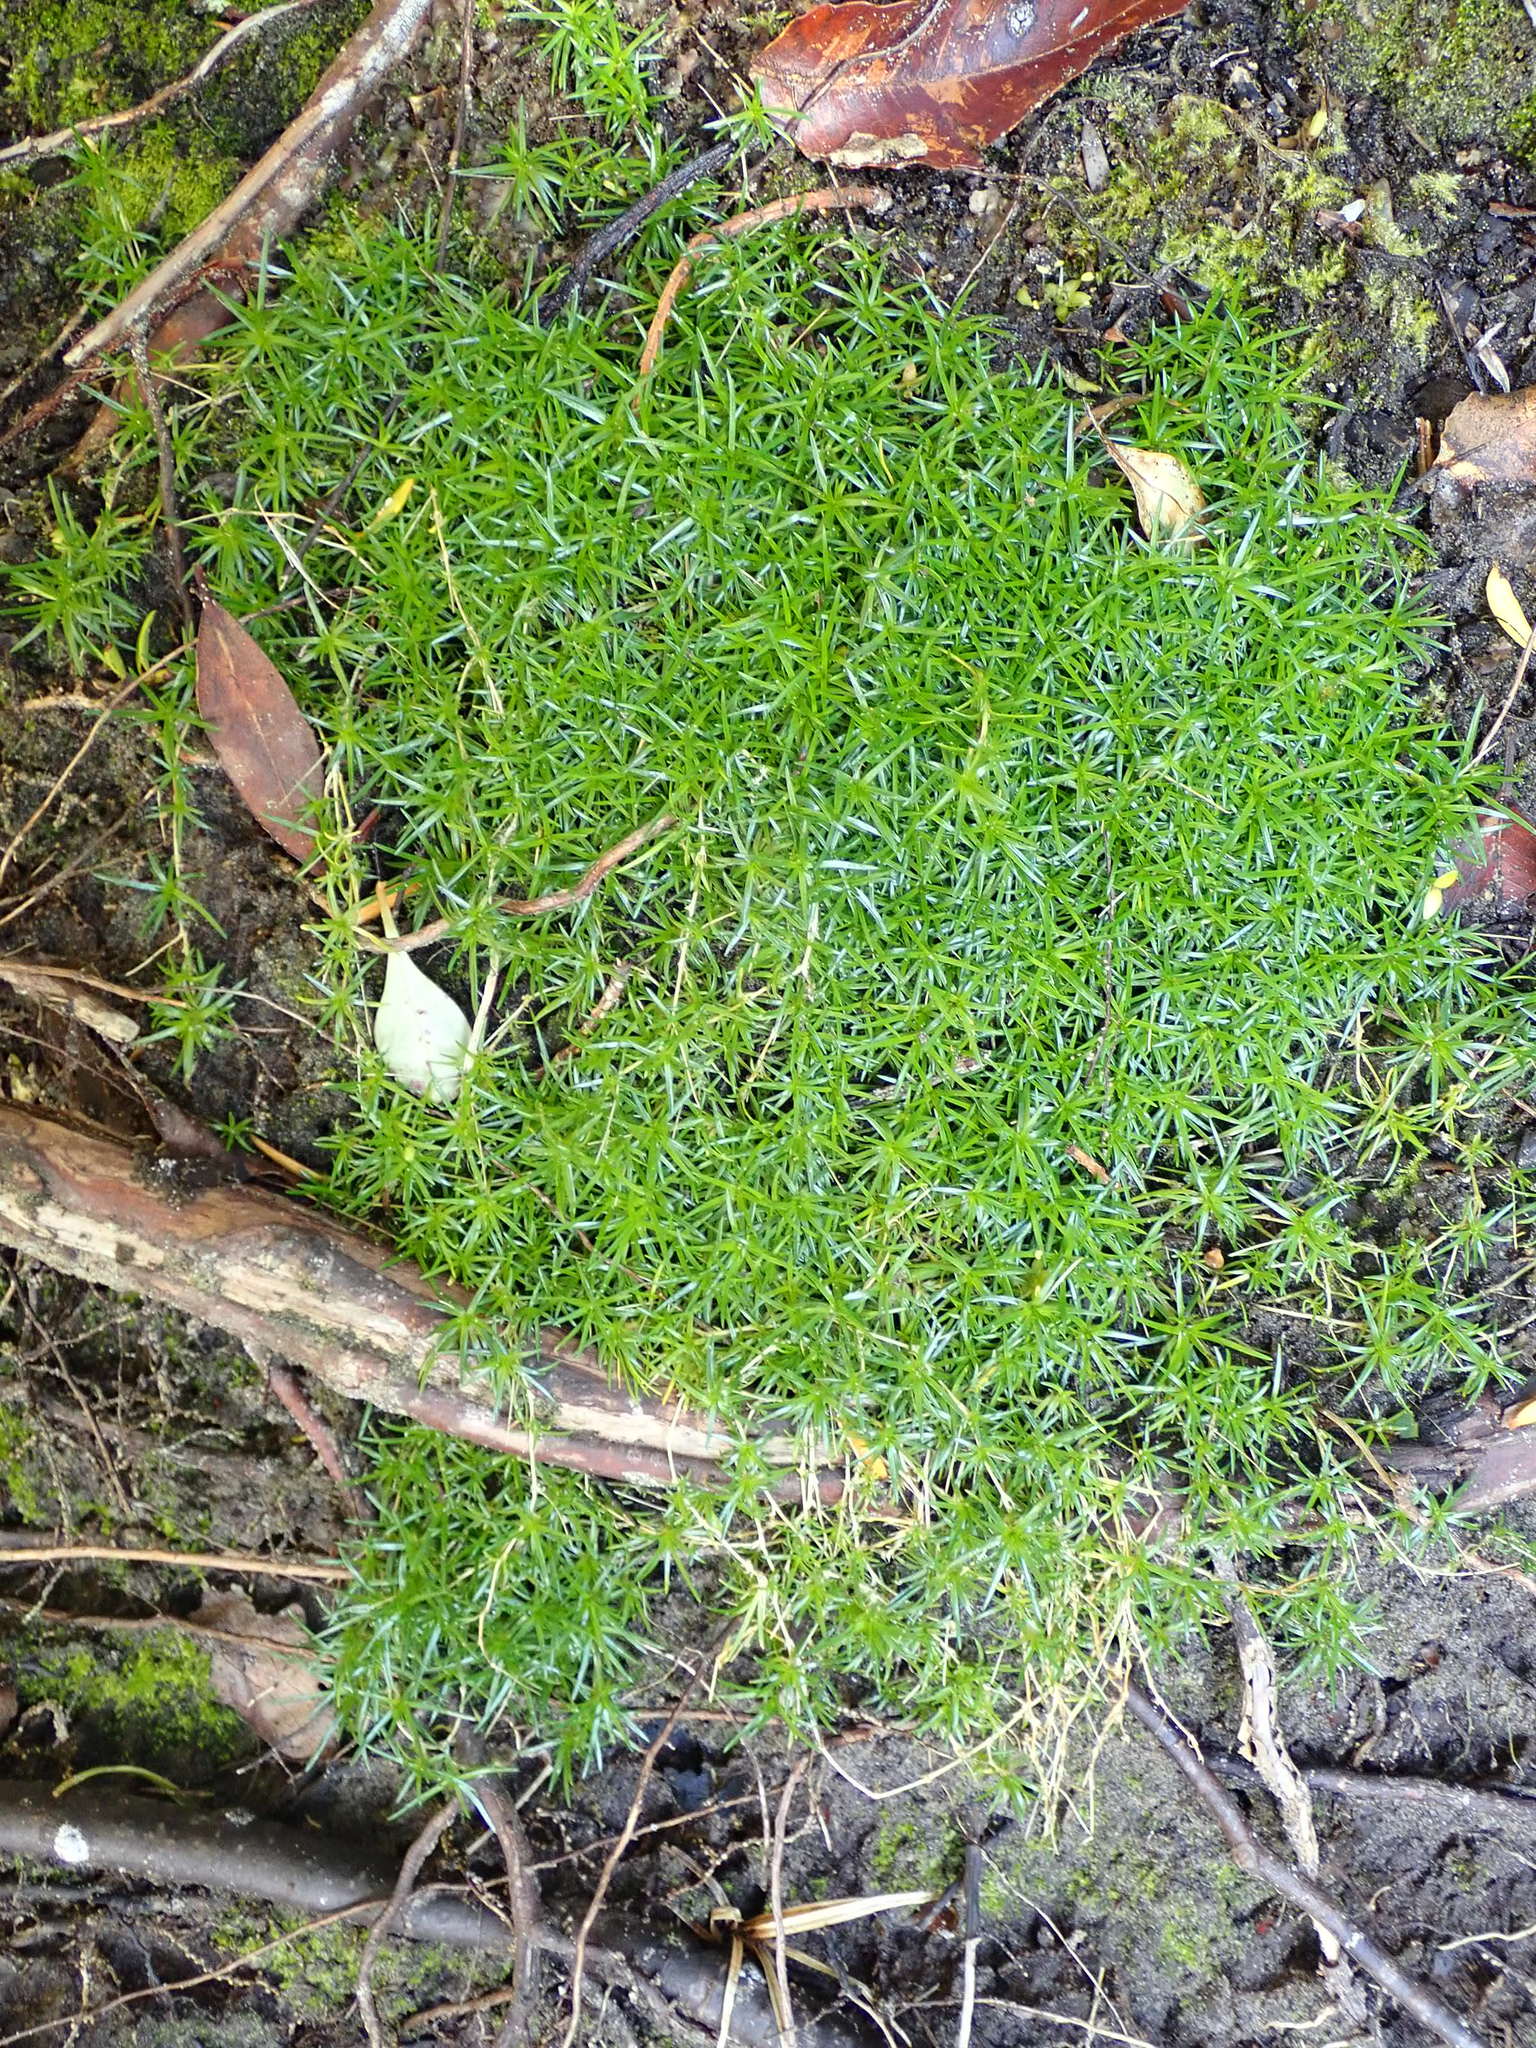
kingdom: Plantae
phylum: Tracheophyta
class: Magnoliopsida
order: Caryophyllales
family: Caryophyllaceae
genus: Sagina
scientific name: Sagina procumbens
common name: Procumbent pearlwort
